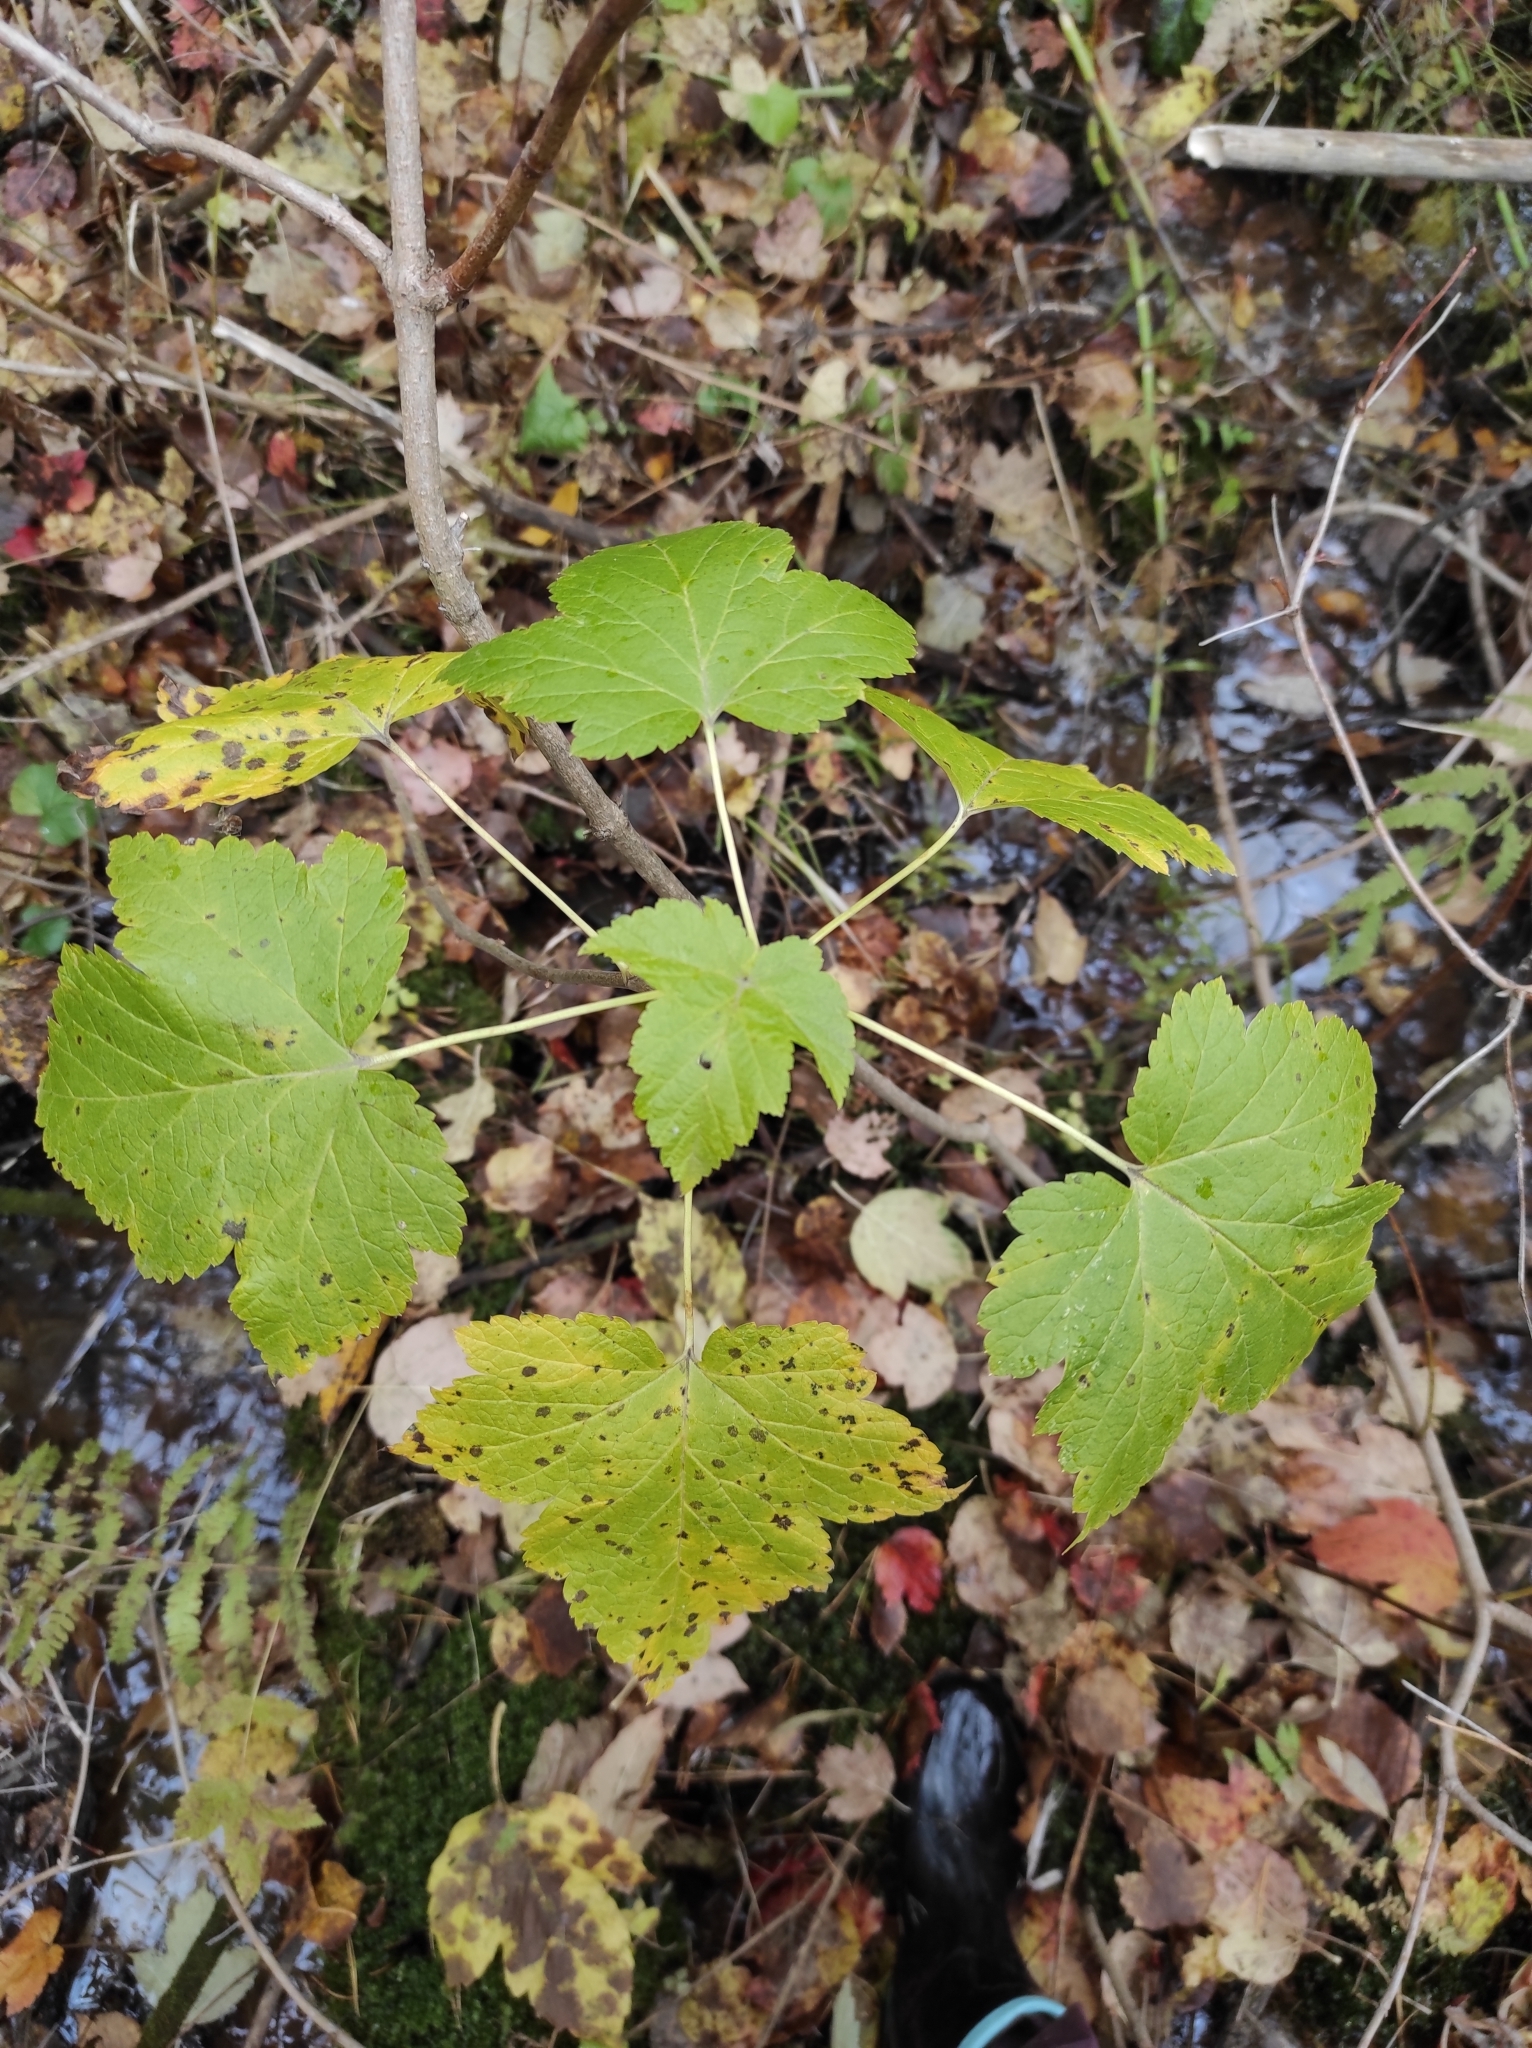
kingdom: Plantae
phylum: Tracheophyta
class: Magnoliopsida
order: Saxifragales
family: Grossulariaceae
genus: Ribes
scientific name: Ribes nigrum
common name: Black currant
